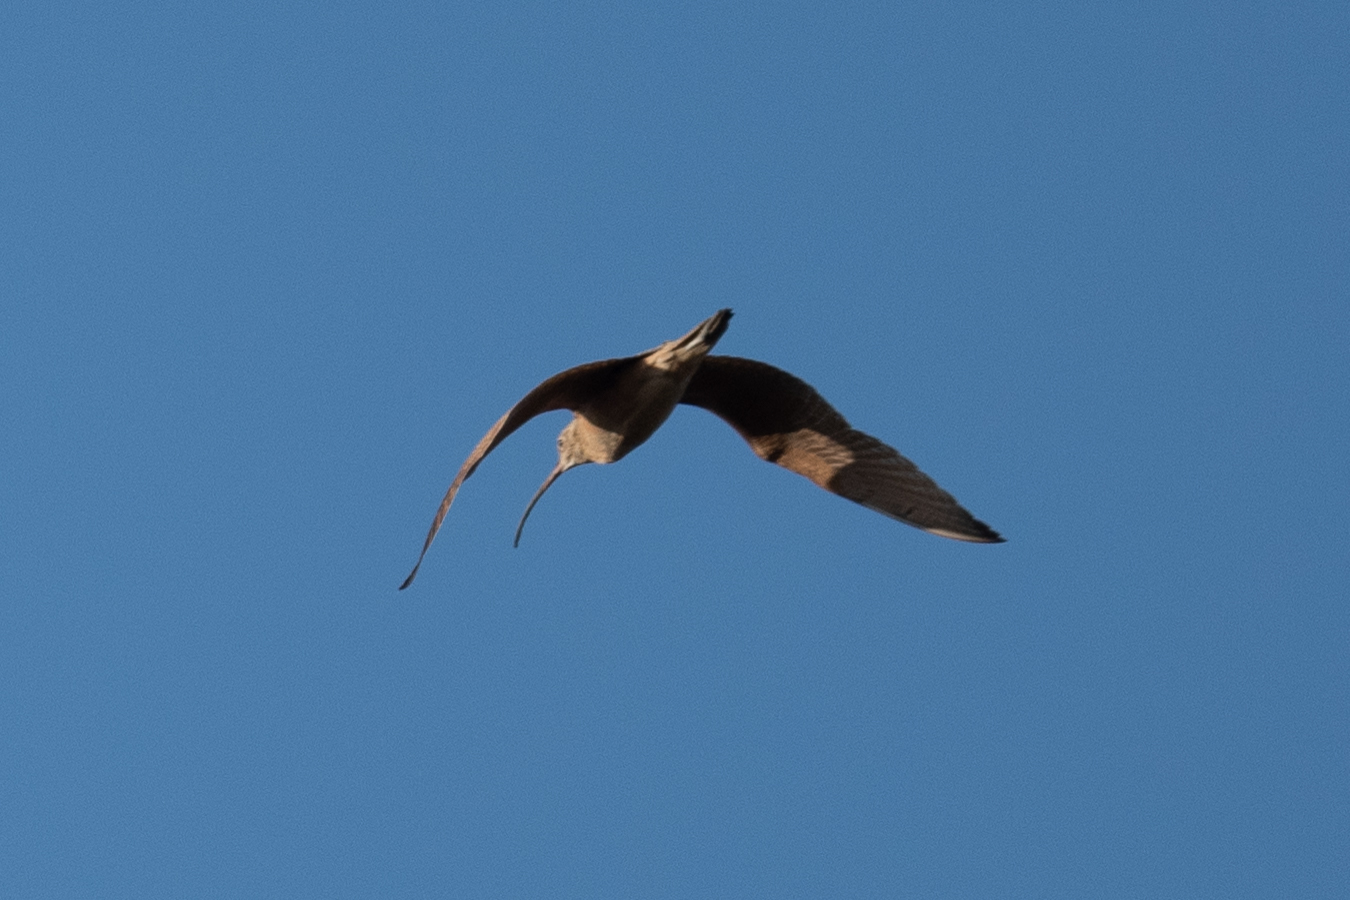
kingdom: Animalia
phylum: Chordata
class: Aves
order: Charadriiformes
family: Scolopacidae
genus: Numenius
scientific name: Numenius americanus
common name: Long-billed curlew
